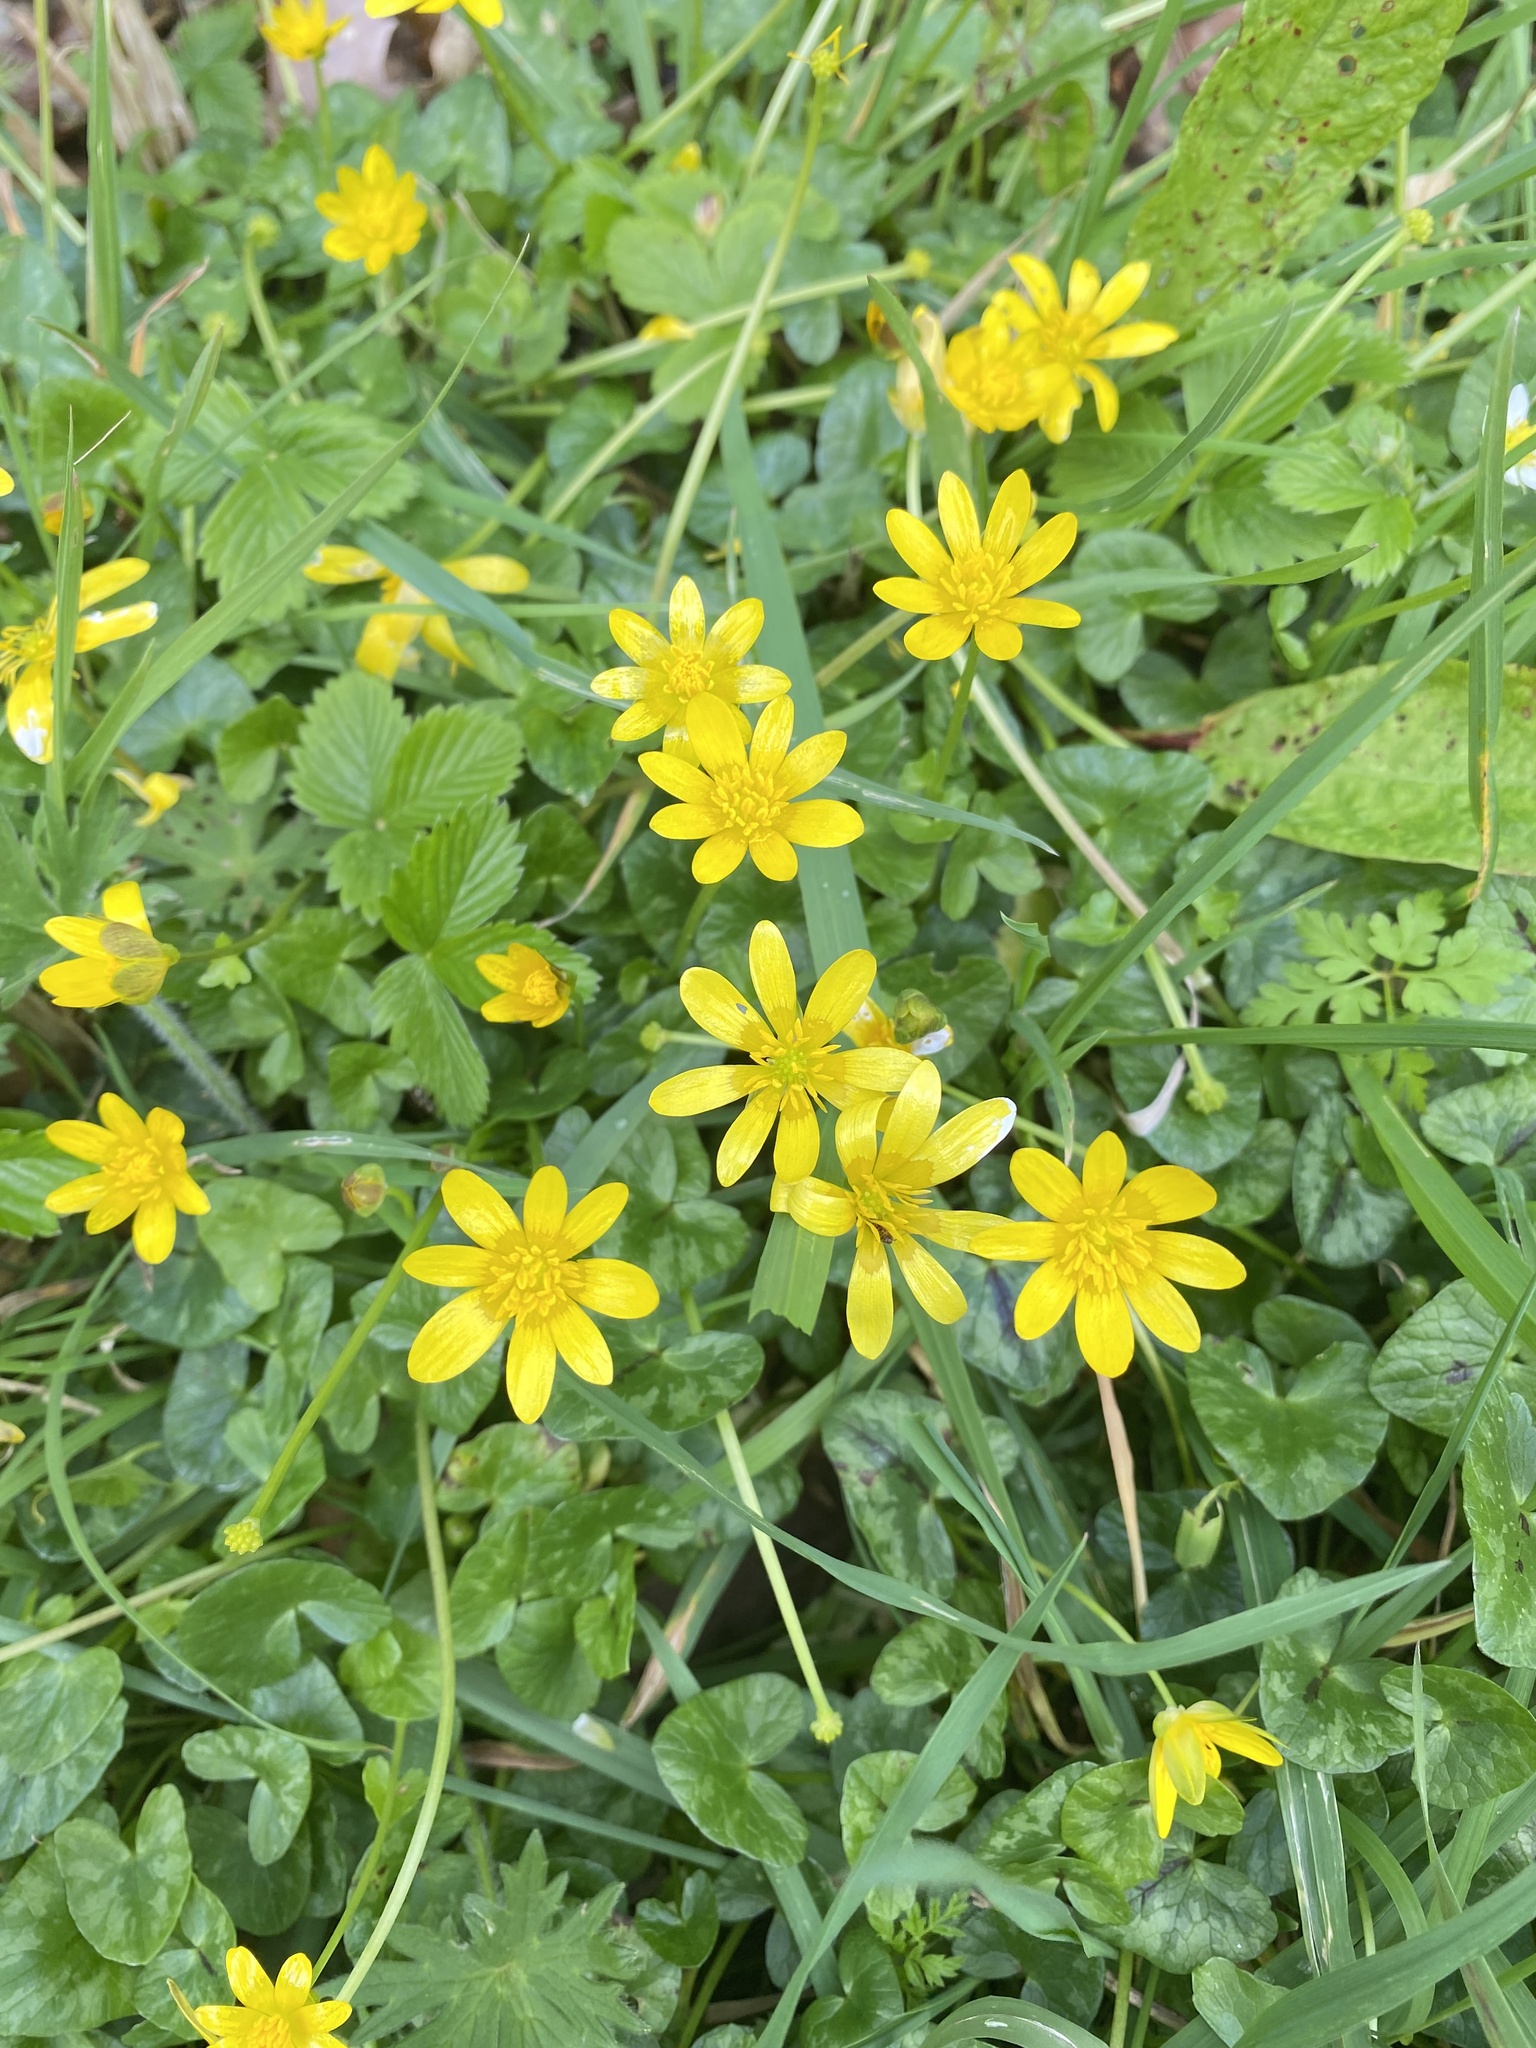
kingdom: Plantae
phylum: Tracheophyta
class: Magnoliopsida
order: Ranunculales
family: Ranunculaceae
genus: Ficaria
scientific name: Ficaria verna
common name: Lesser celandine
